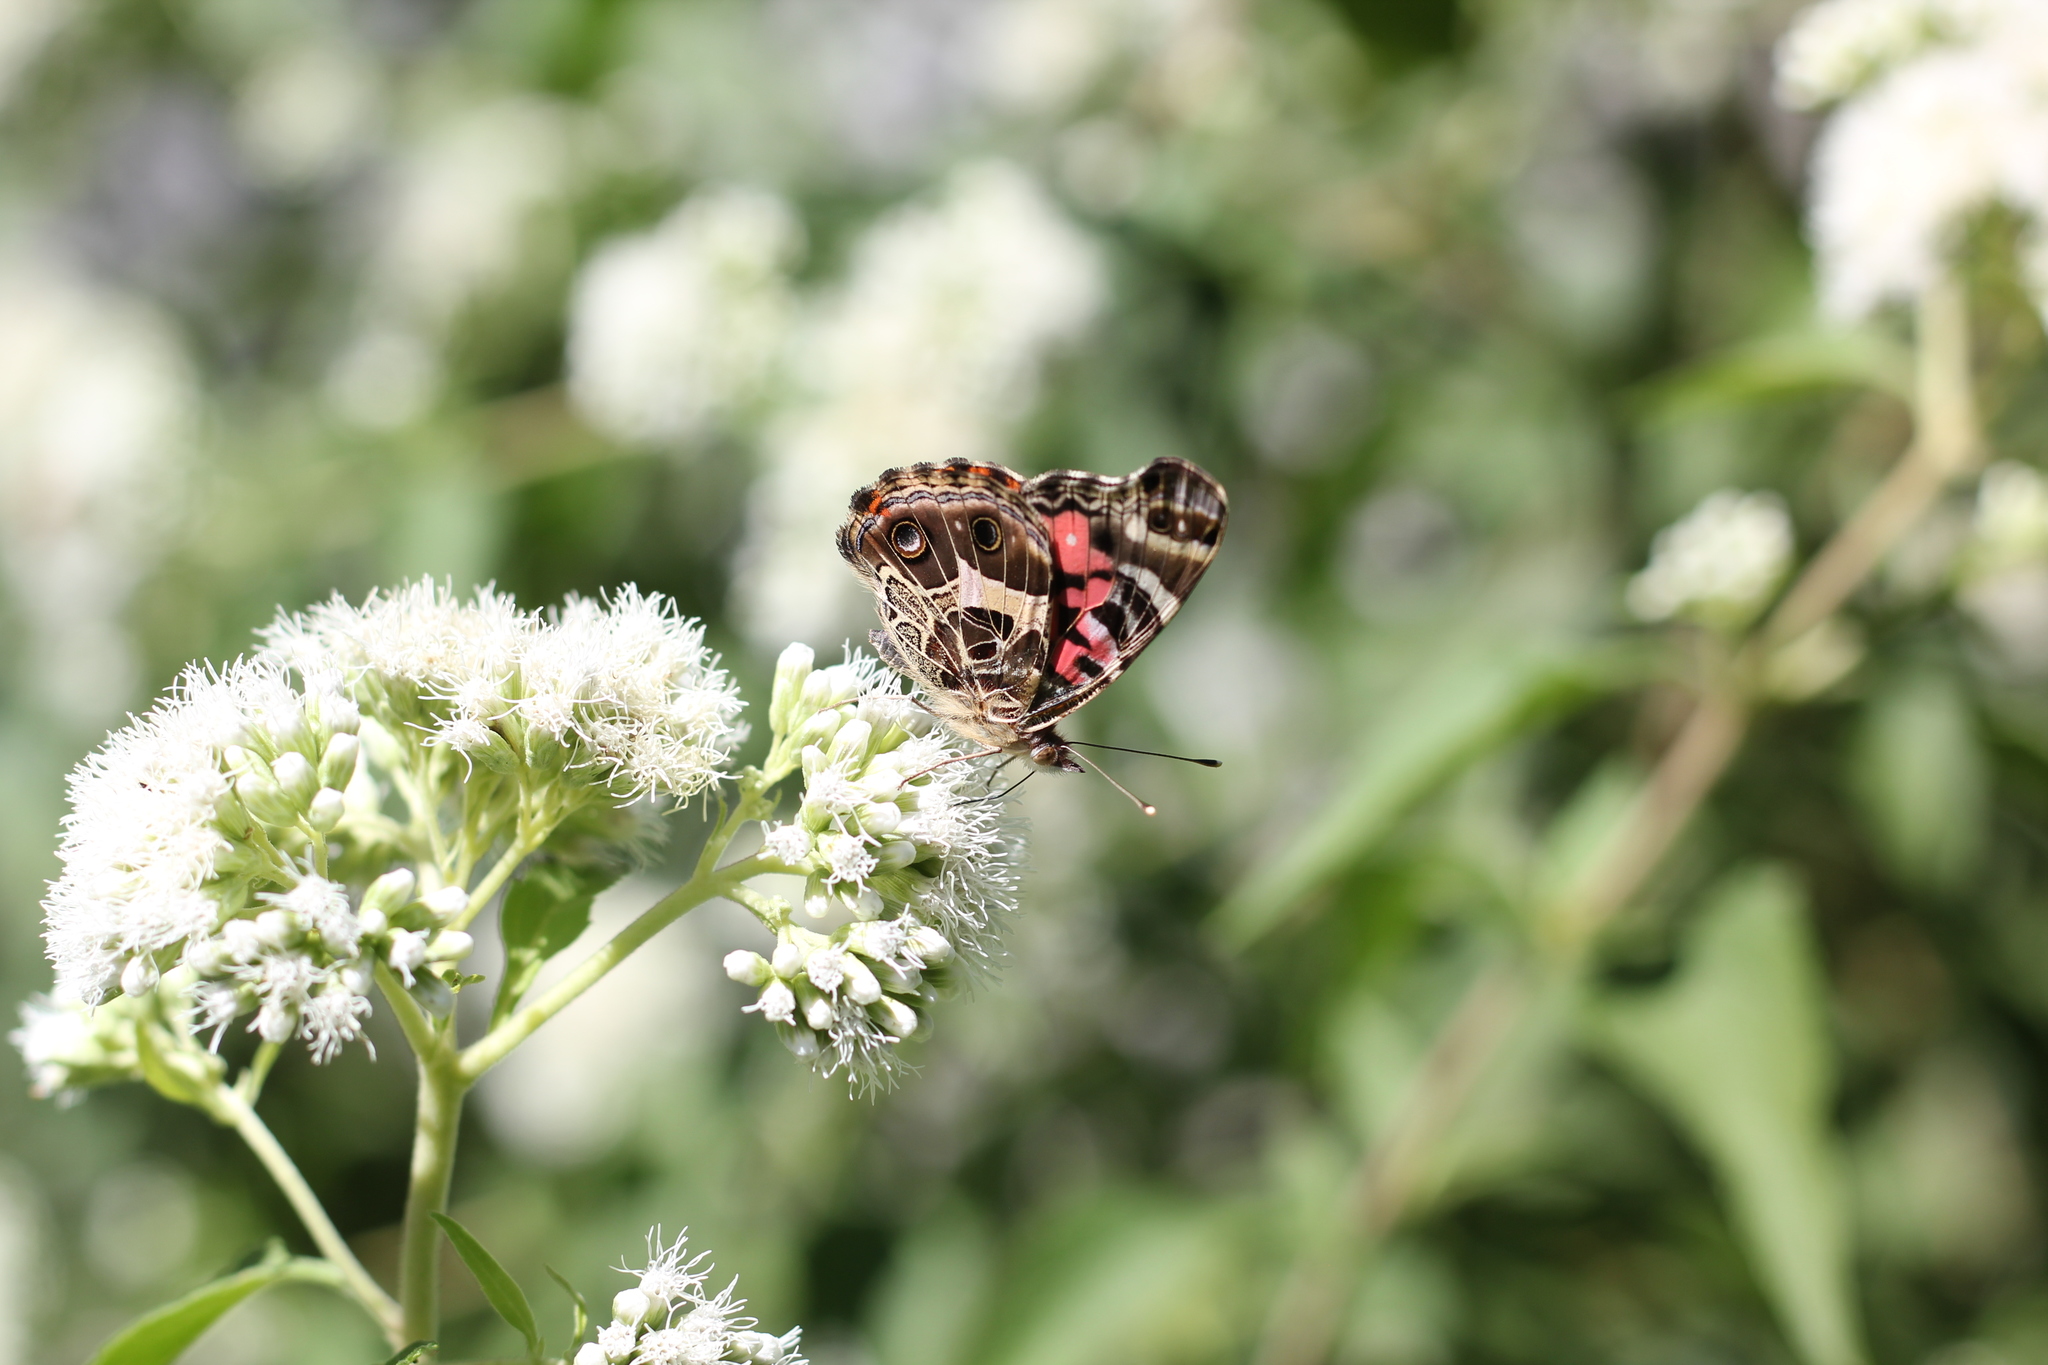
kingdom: Animalia
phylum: Arthropoda
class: Insecta
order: Lepidoptera
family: Nymphalidae
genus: Vanessa
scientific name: Vanessa braziliensis
